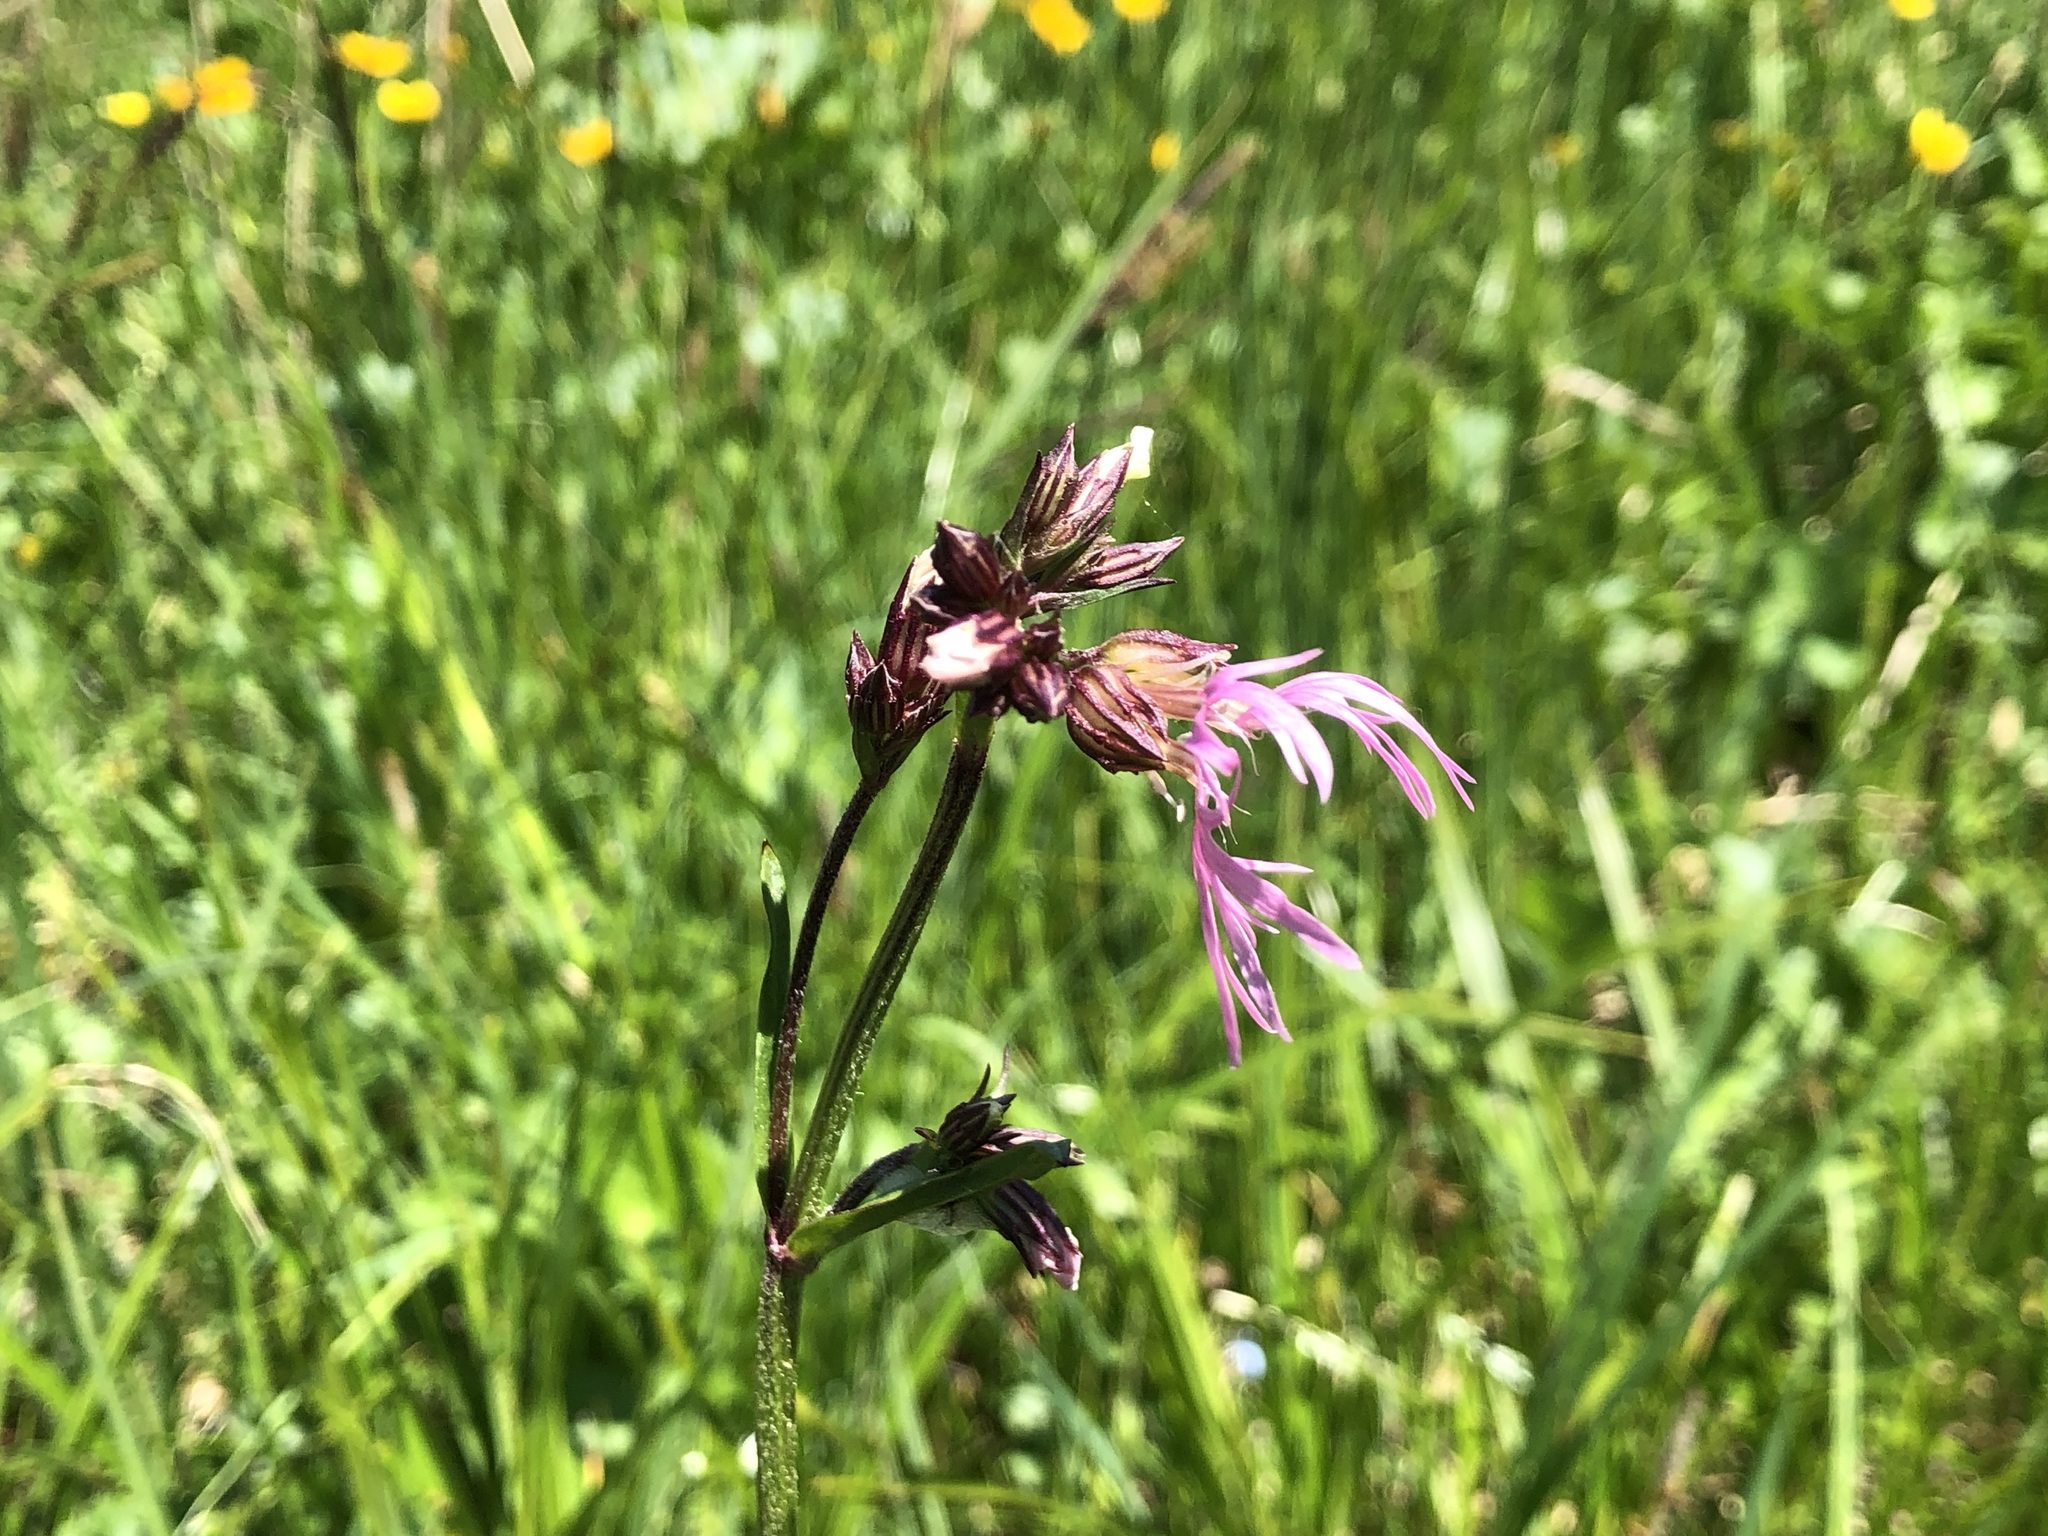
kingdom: Plantae
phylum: Tracheophyta
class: Magnoliopsida
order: Caryophyllales
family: Caryophyllaceae
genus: Silene
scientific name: Silene flos-cuculi
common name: Ragged-robin
